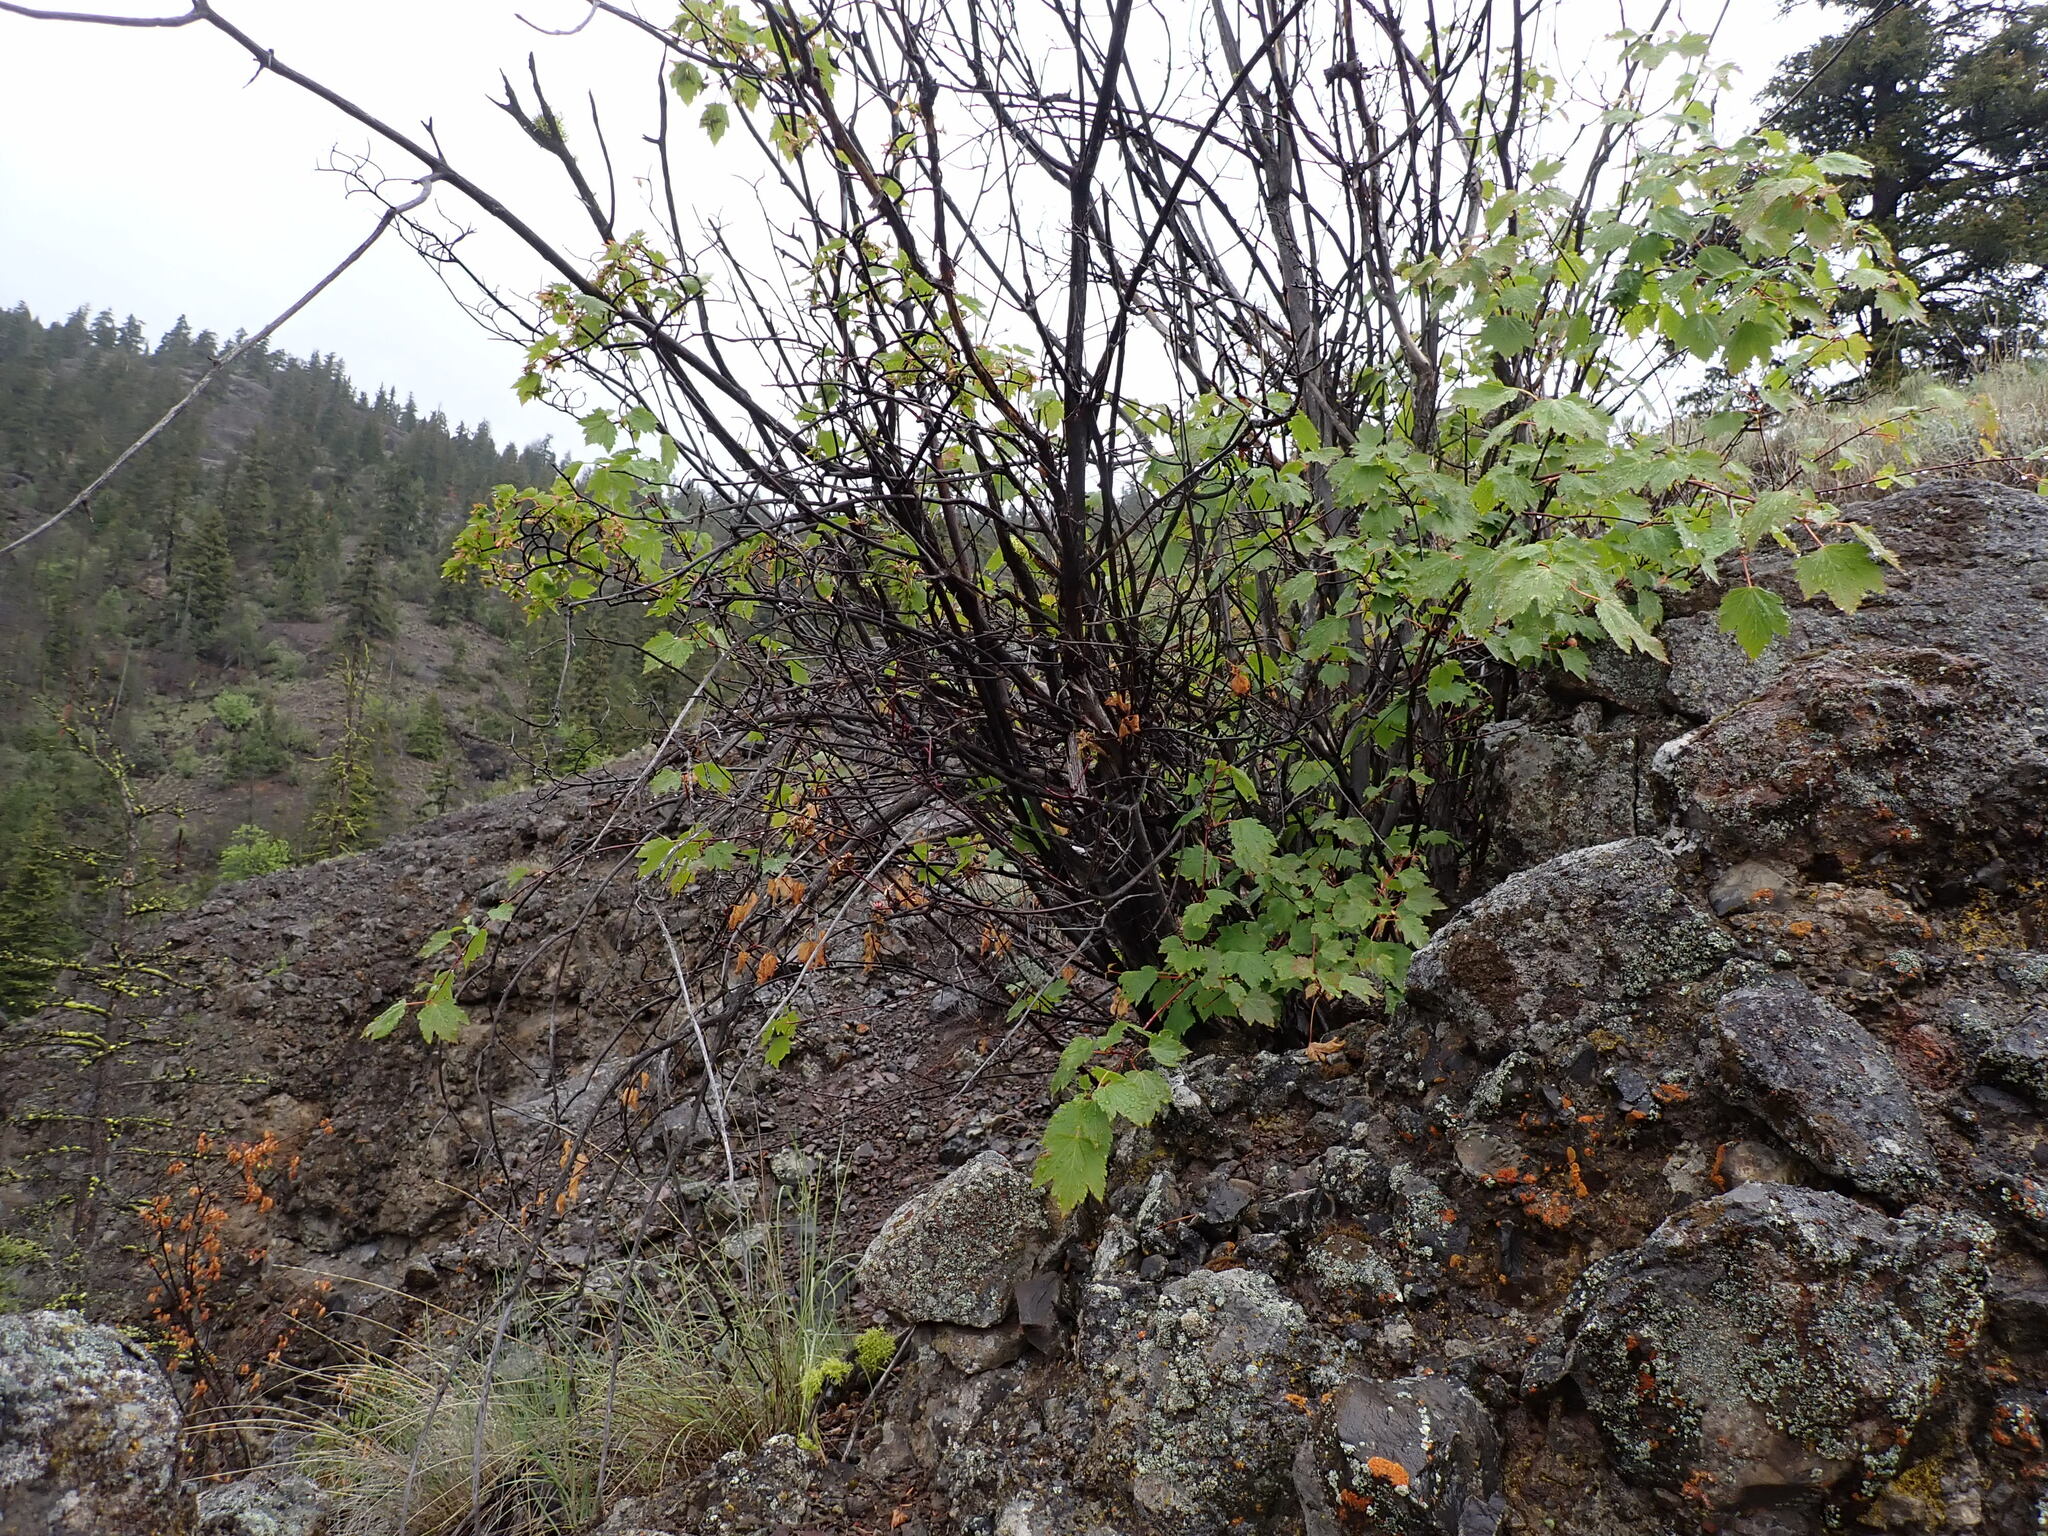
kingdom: Plantae
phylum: Tracheophyta
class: Magnoliopsida
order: Sapindales
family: Sapindaceae
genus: Acer
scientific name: Acer glabrum
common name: Rocky mountain maple
